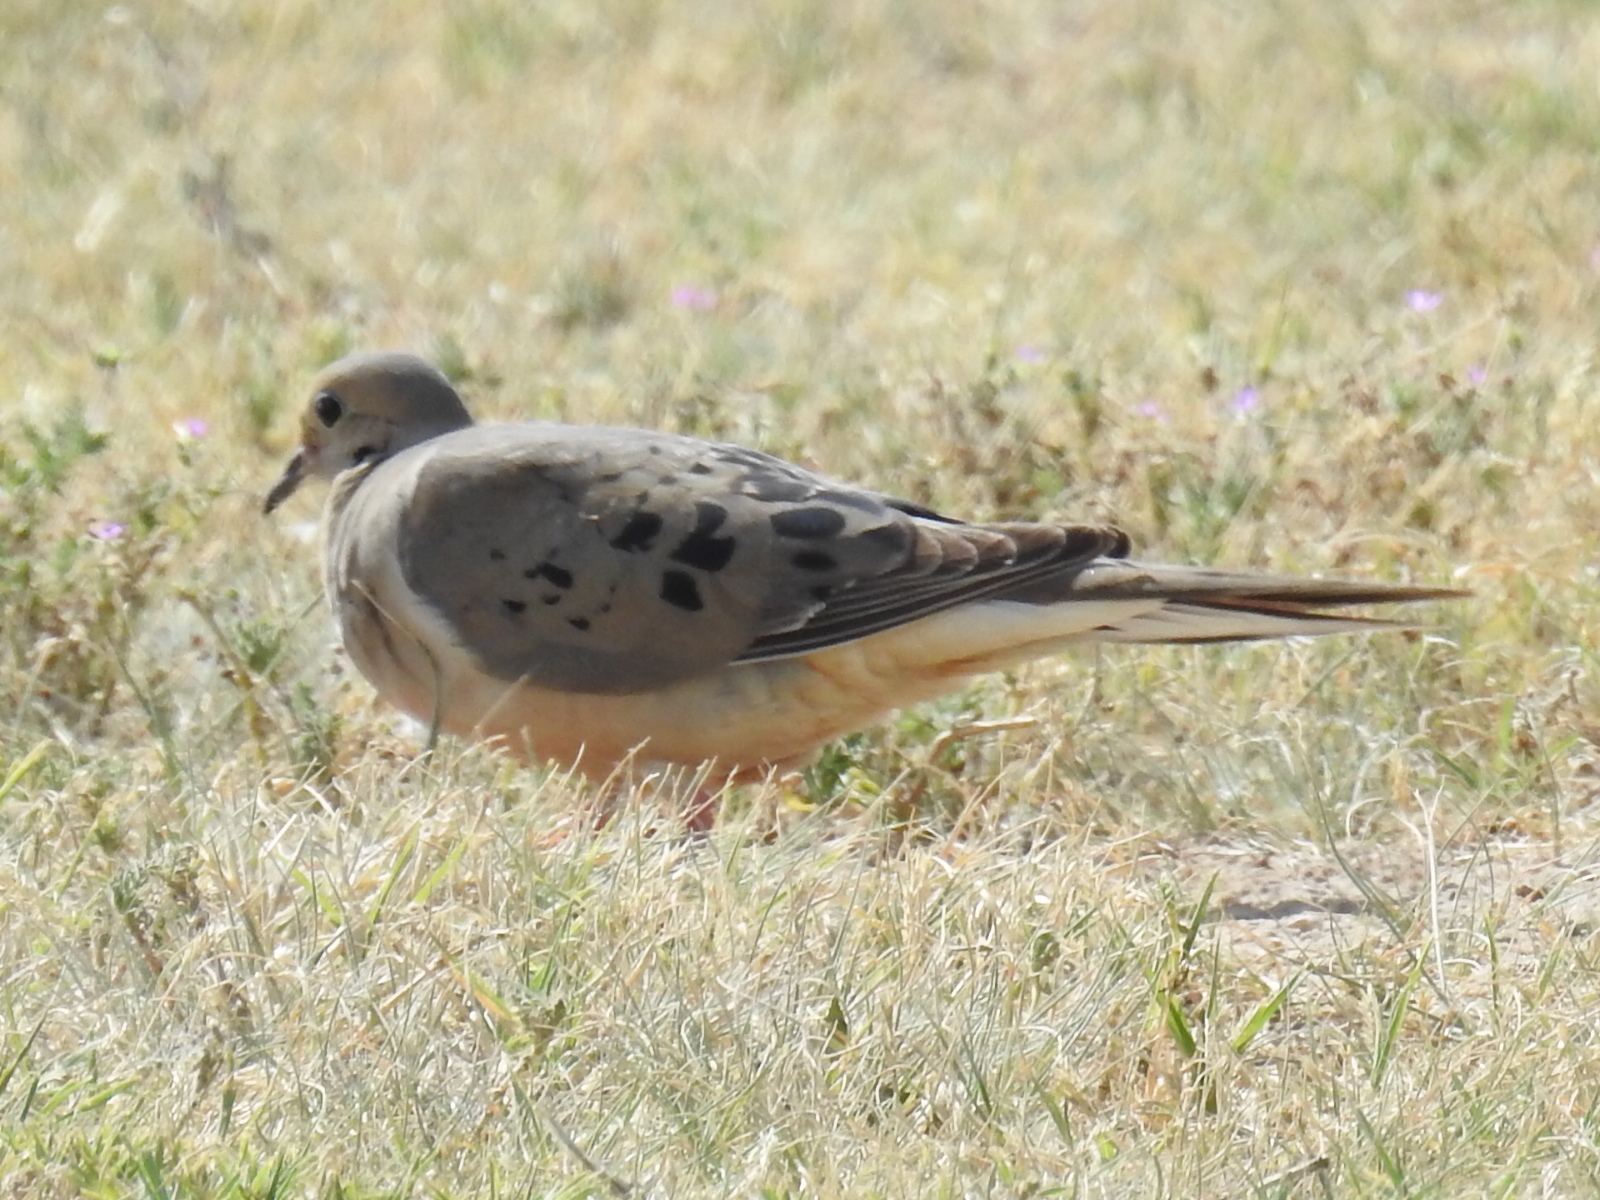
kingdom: Animalia
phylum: Chordata
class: Aves
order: Columbiformes
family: Columbidae
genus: Zenaida
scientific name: Zenaida macroura
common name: Mourning dove
